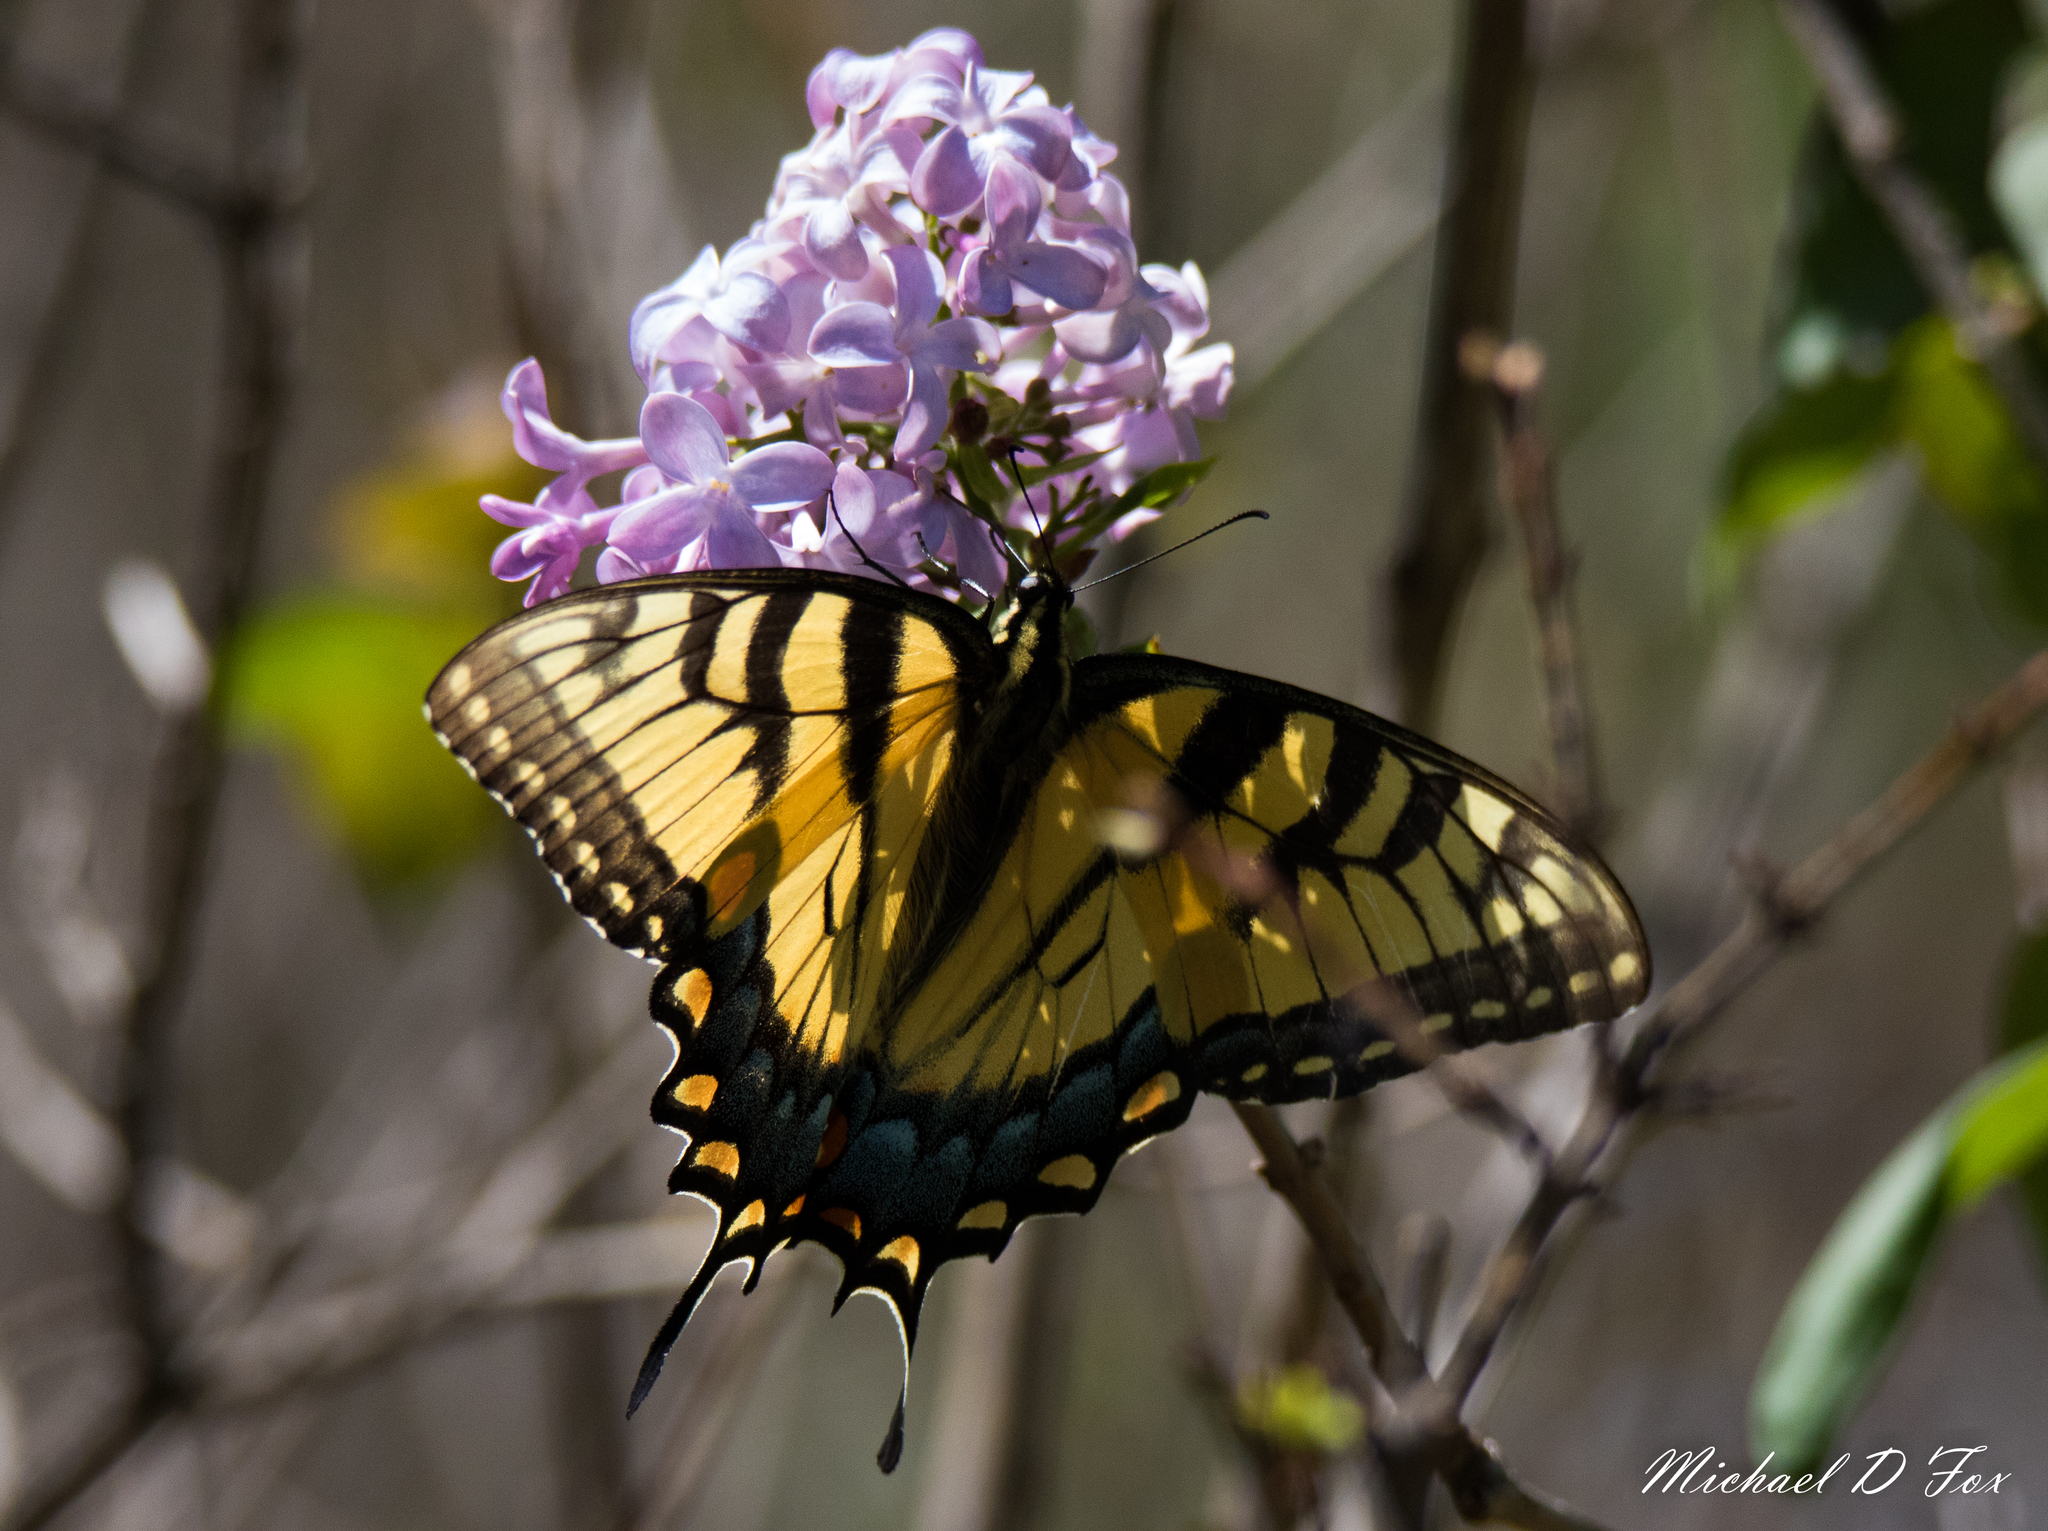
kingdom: Animalia
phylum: Arthropoda
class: Insecta
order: Lepidoptera
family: Papilionidae
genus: Papilio
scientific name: Papilio glaucus
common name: Tiger swallowtail
